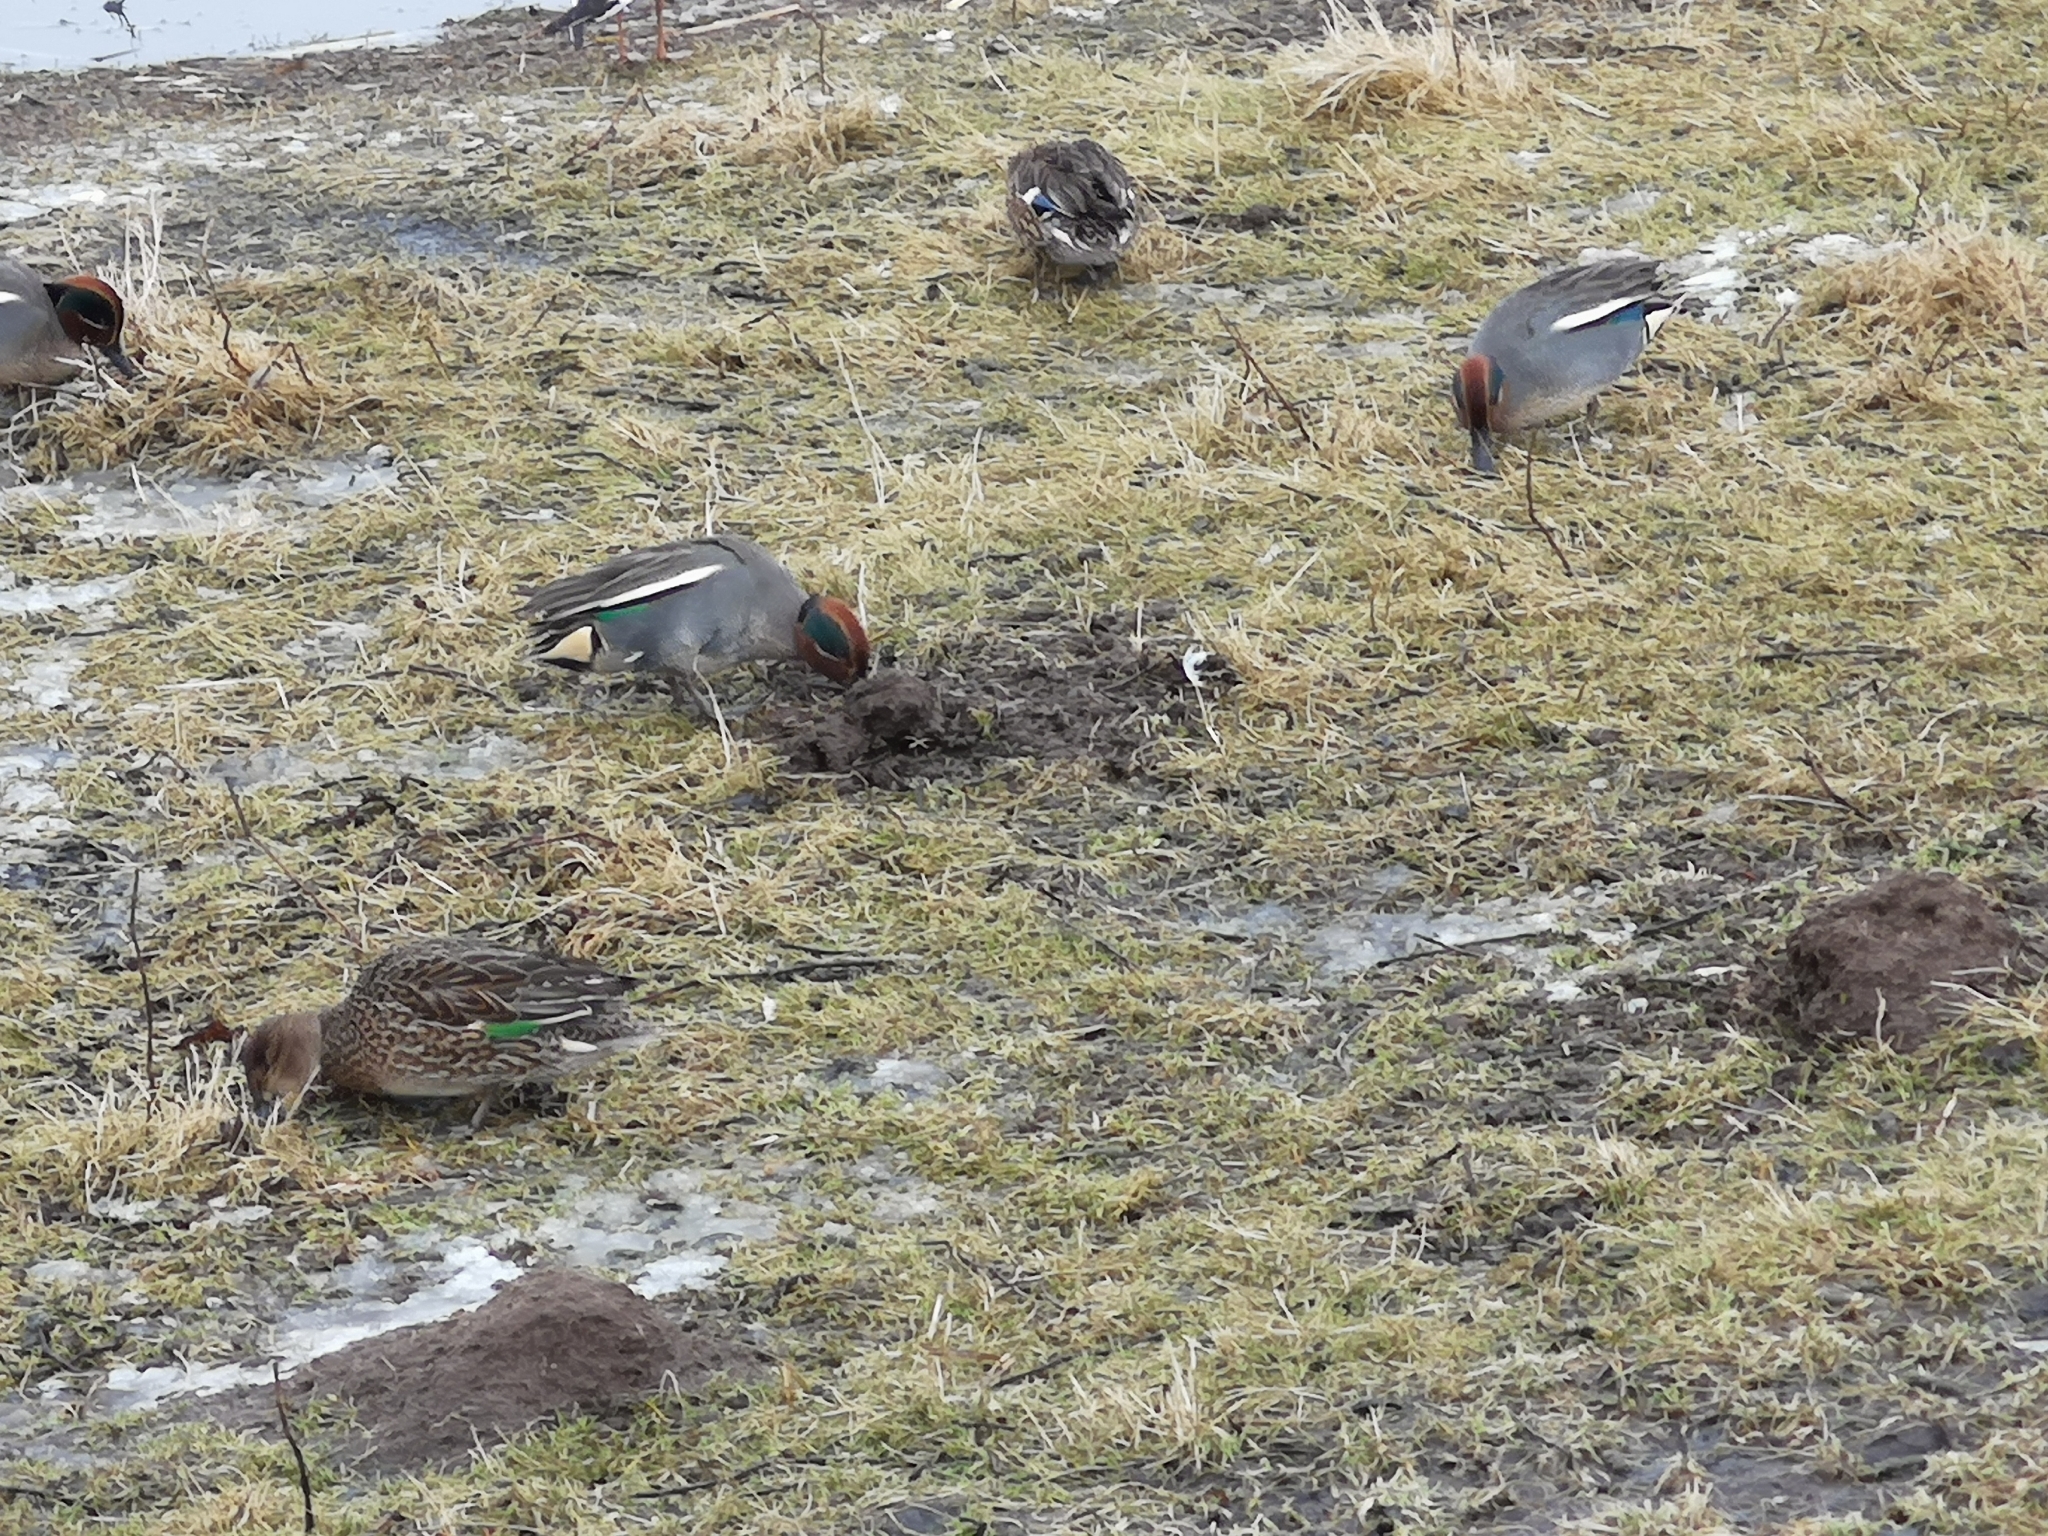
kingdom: Animalia
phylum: Chordata
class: Aves
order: Anseriformes
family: Anatidae
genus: Anas
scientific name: Anas crecca
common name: Eurasian teal
